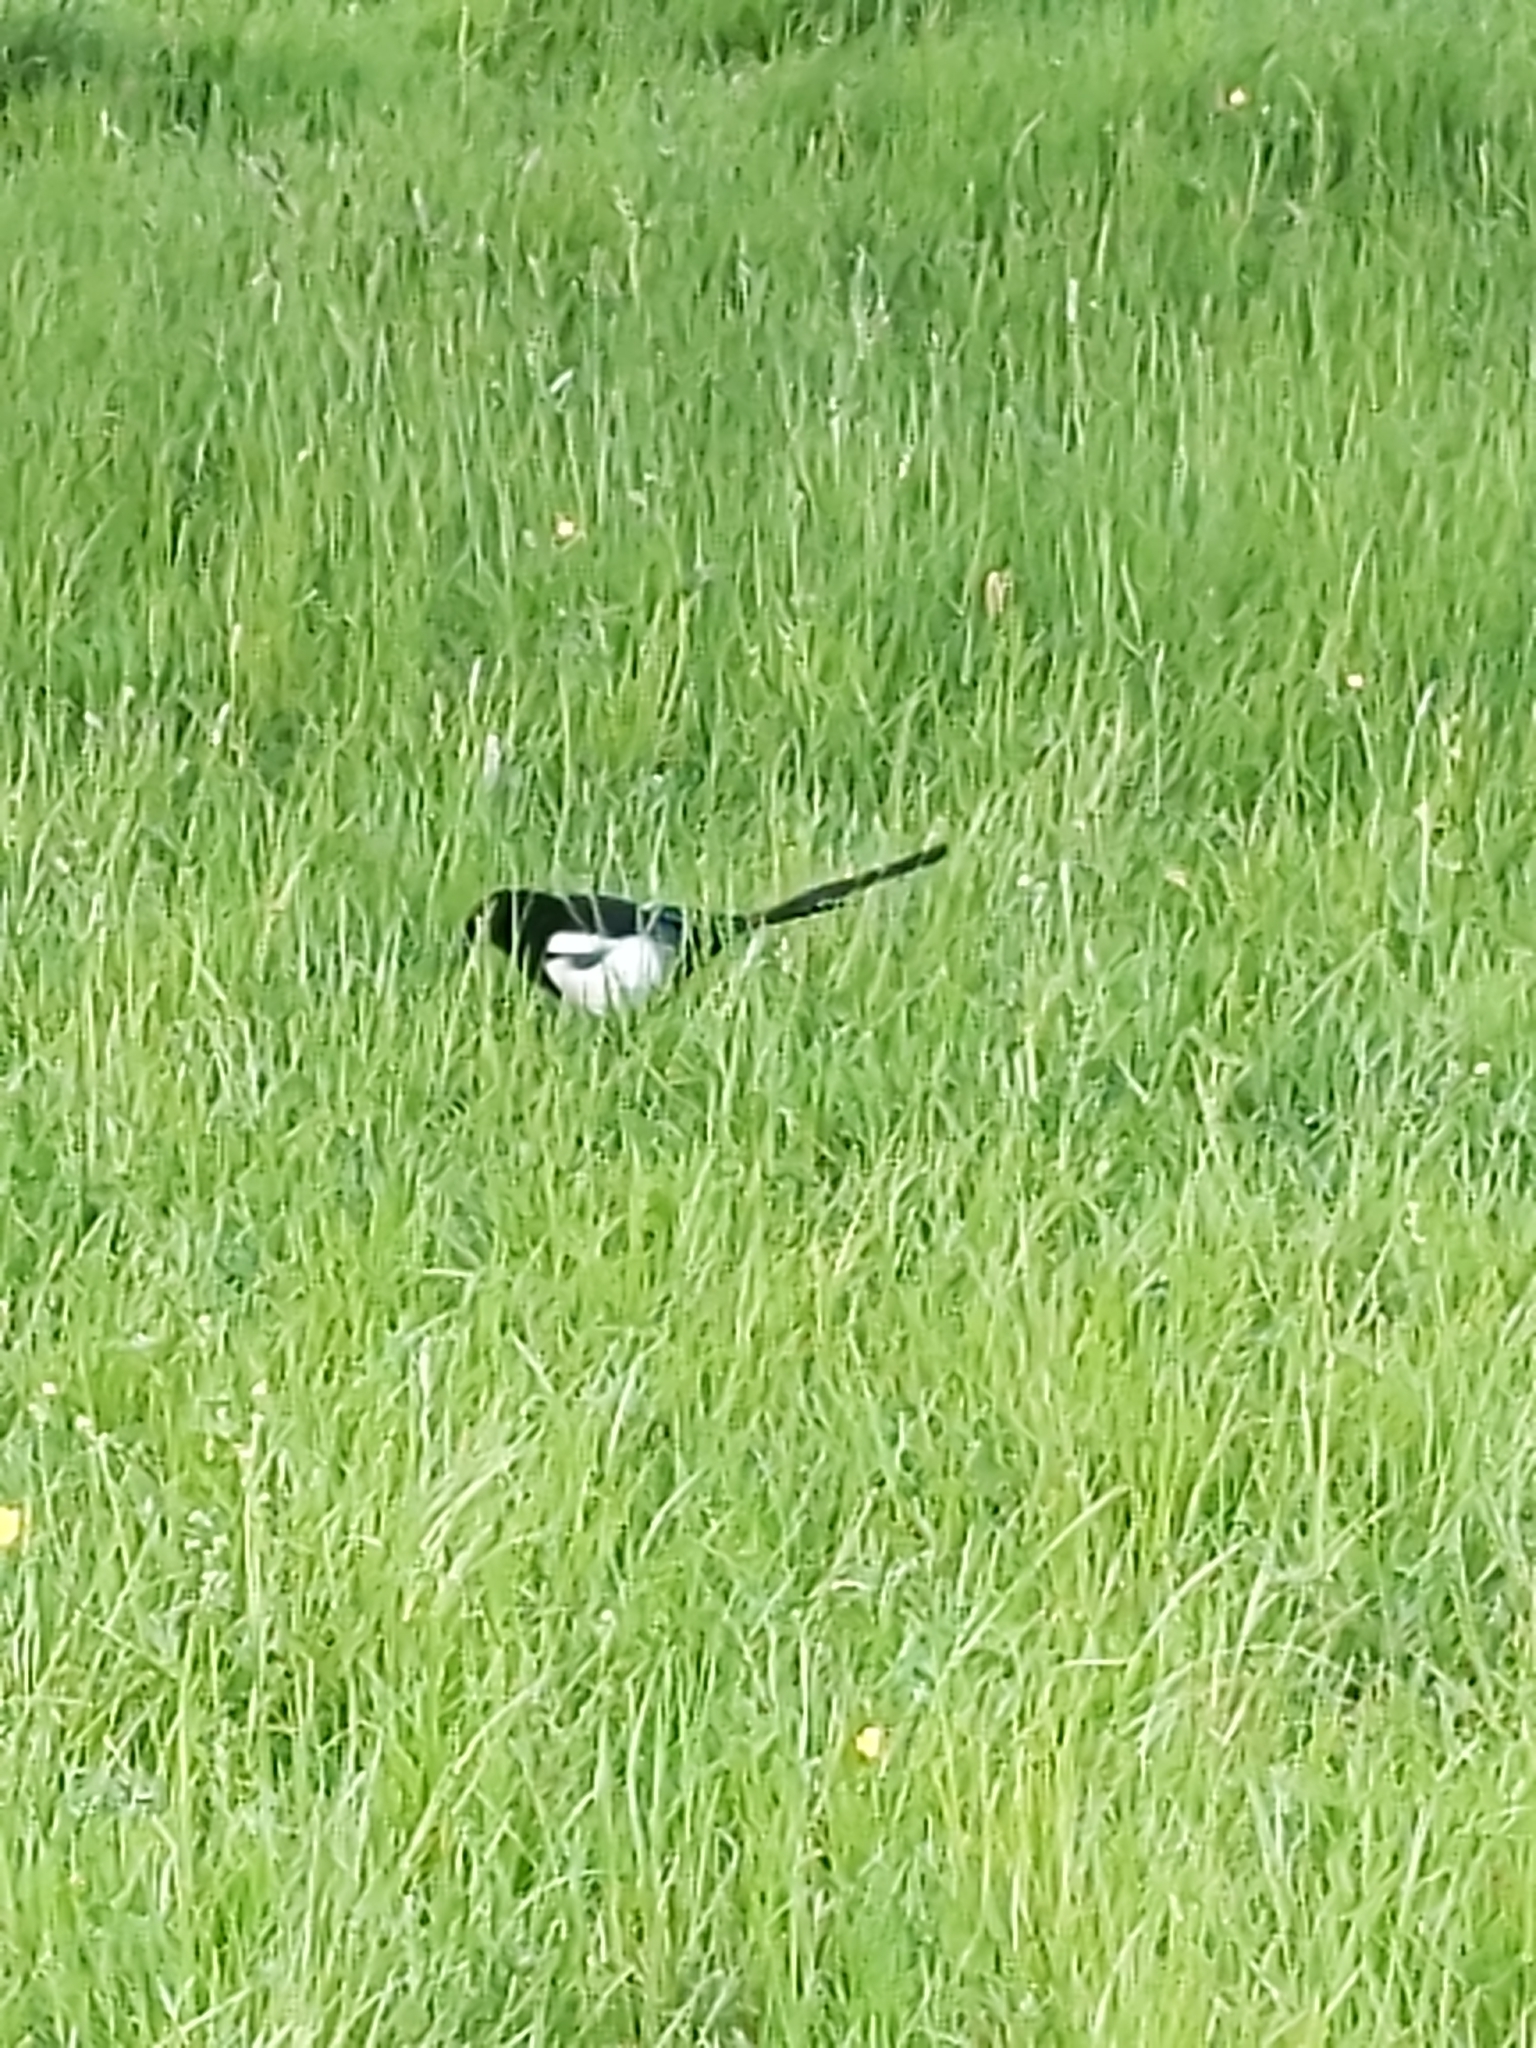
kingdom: Animalia
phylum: Chordata
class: Aves
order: Passeriformes
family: Corvidae
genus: Pica
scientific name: Pica pica
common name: Eurasian magpie
